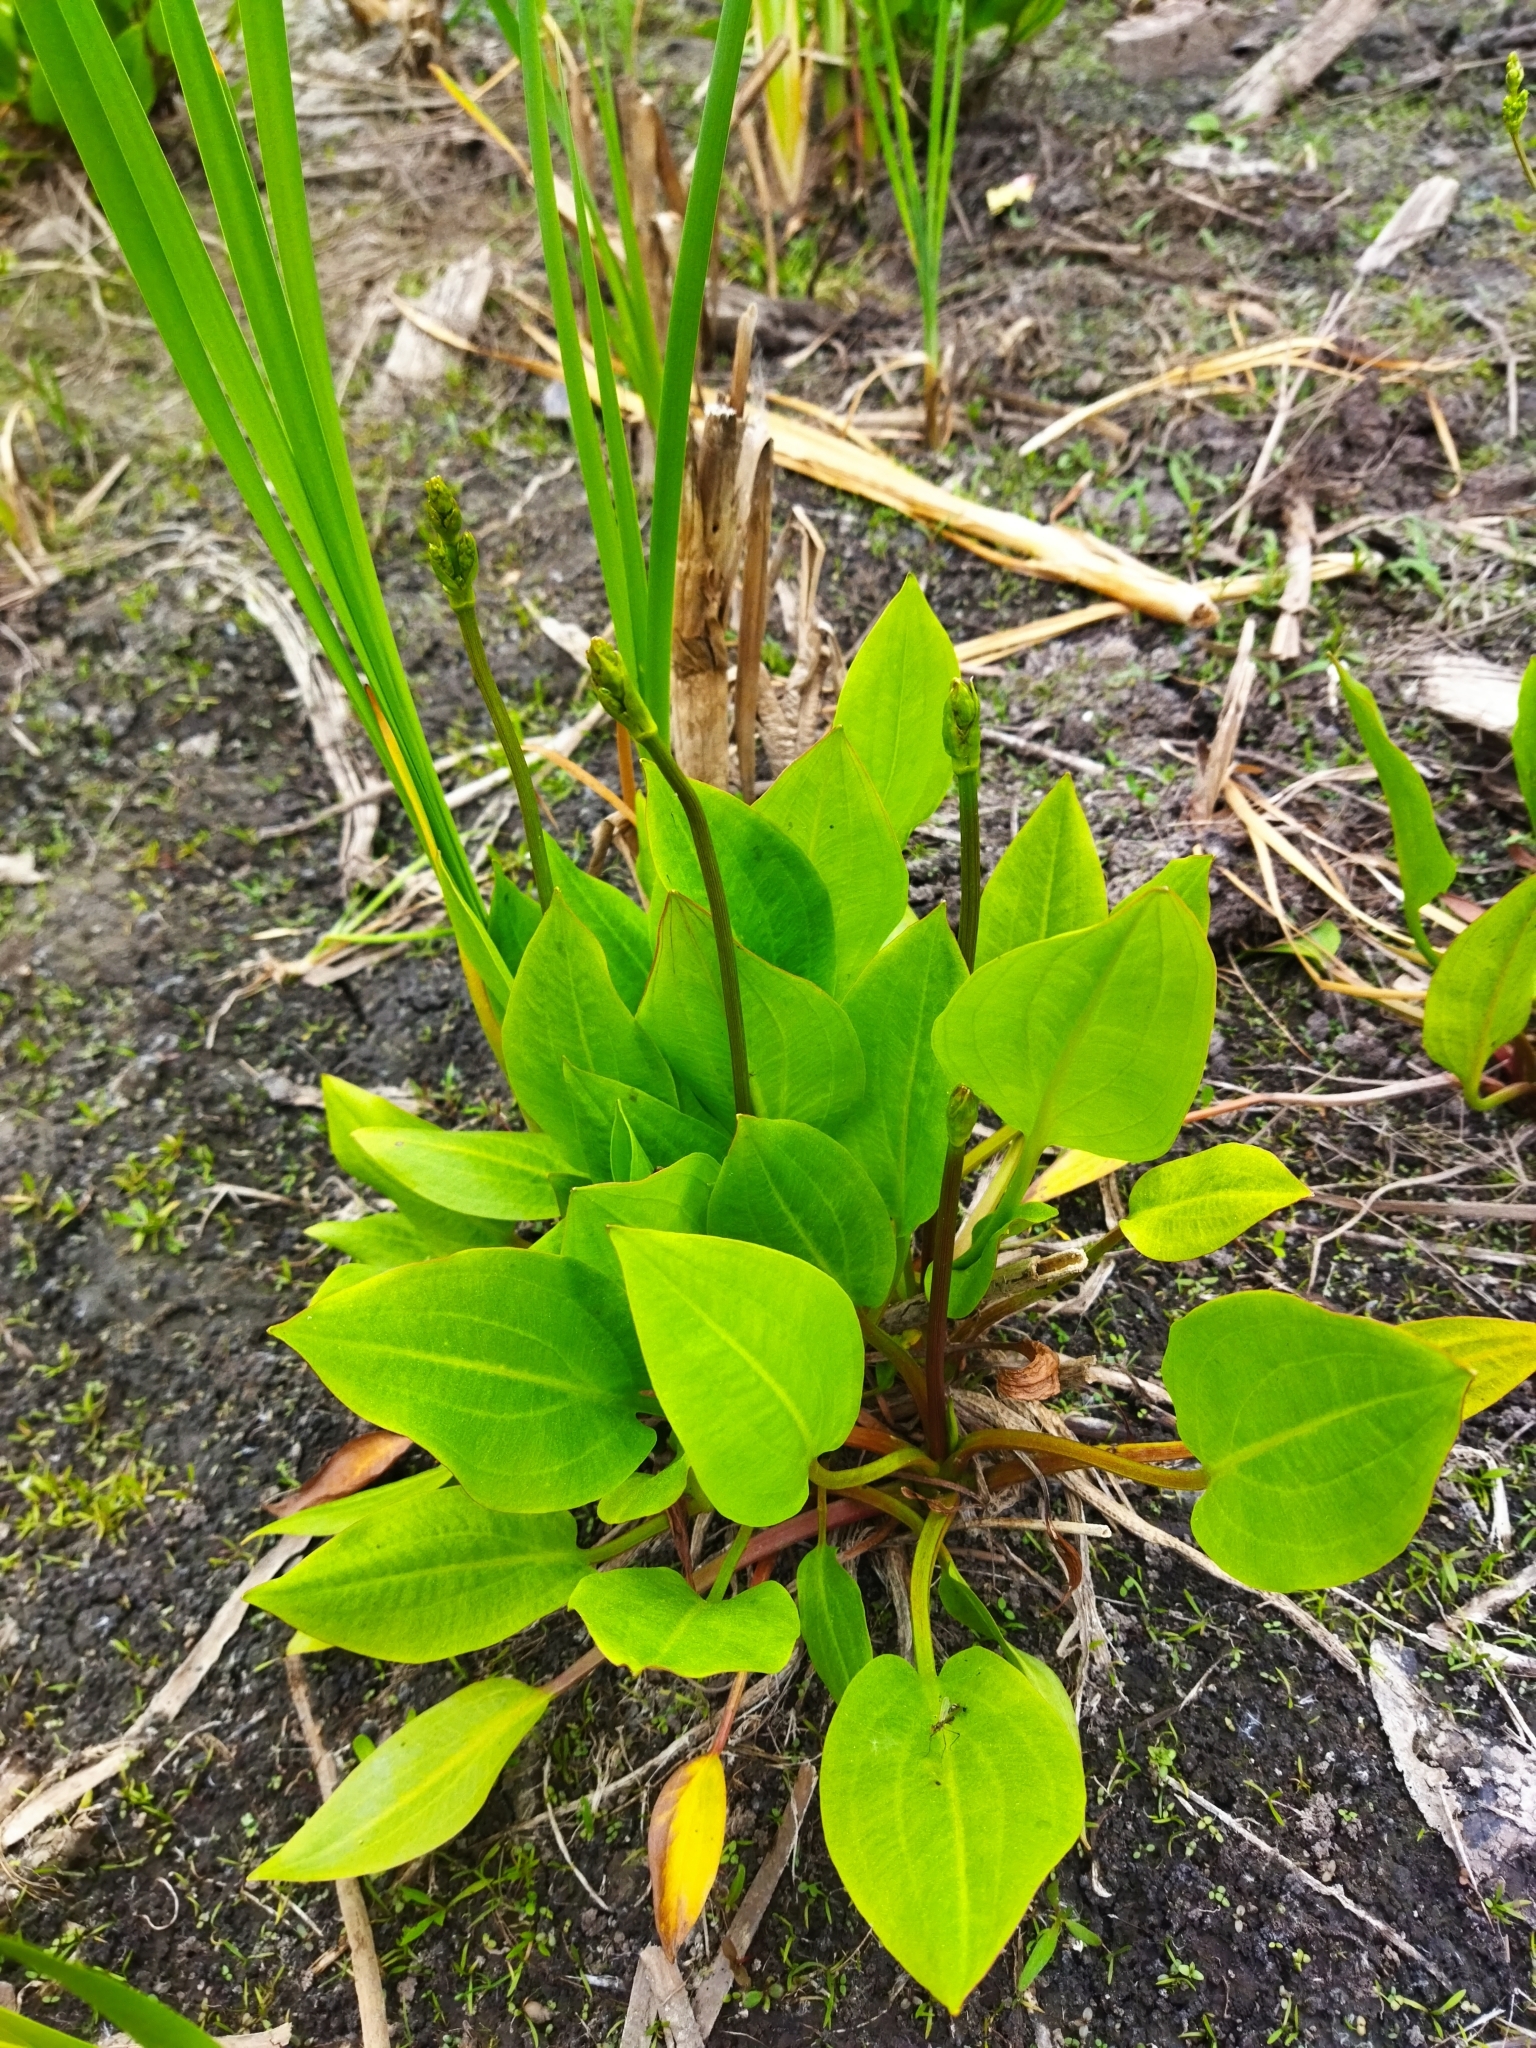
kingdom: Plantae
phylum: Tracheophyta
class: Liliopsida
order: Alismatales
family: Alismataceae
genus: Alisma
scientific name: Alisma plantago-aquatica
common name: Water-plantain
